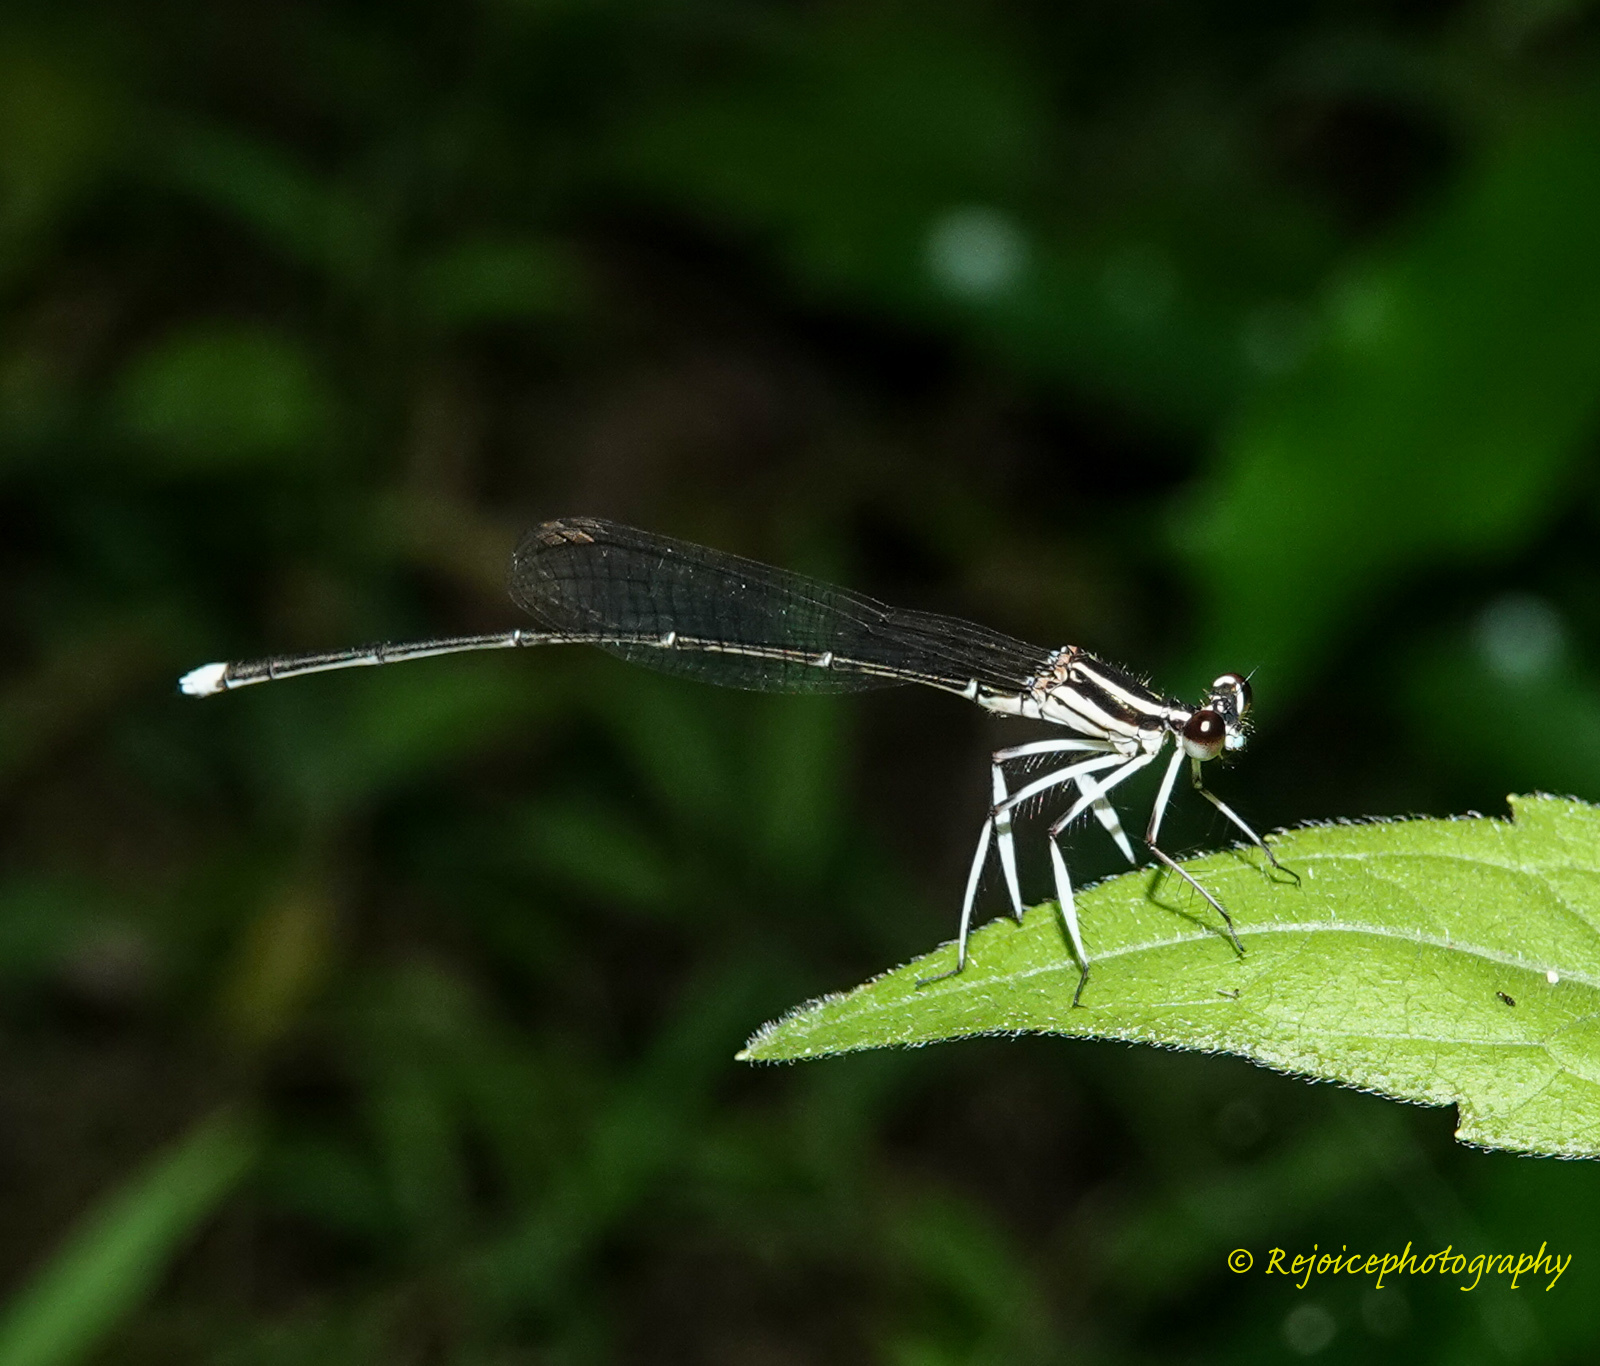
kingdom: Animalia
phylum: Arthropoda
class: Insecta
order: Odonata
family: Platycnemididae
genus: Pseudocopera
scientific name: Pseudocopera ciliata
